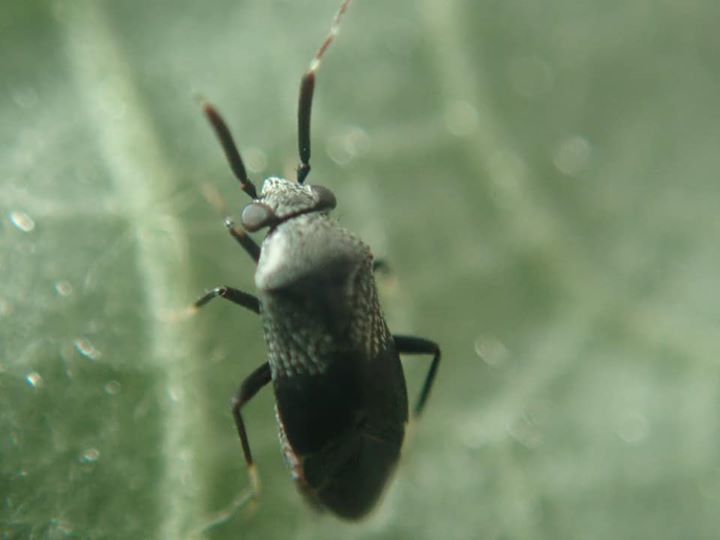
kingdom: Animalia
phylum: Arthropoda
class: Insecta
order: Hemiptera
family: Miridae
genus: Druthmarus
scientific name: Druthmarus miyamotoi
